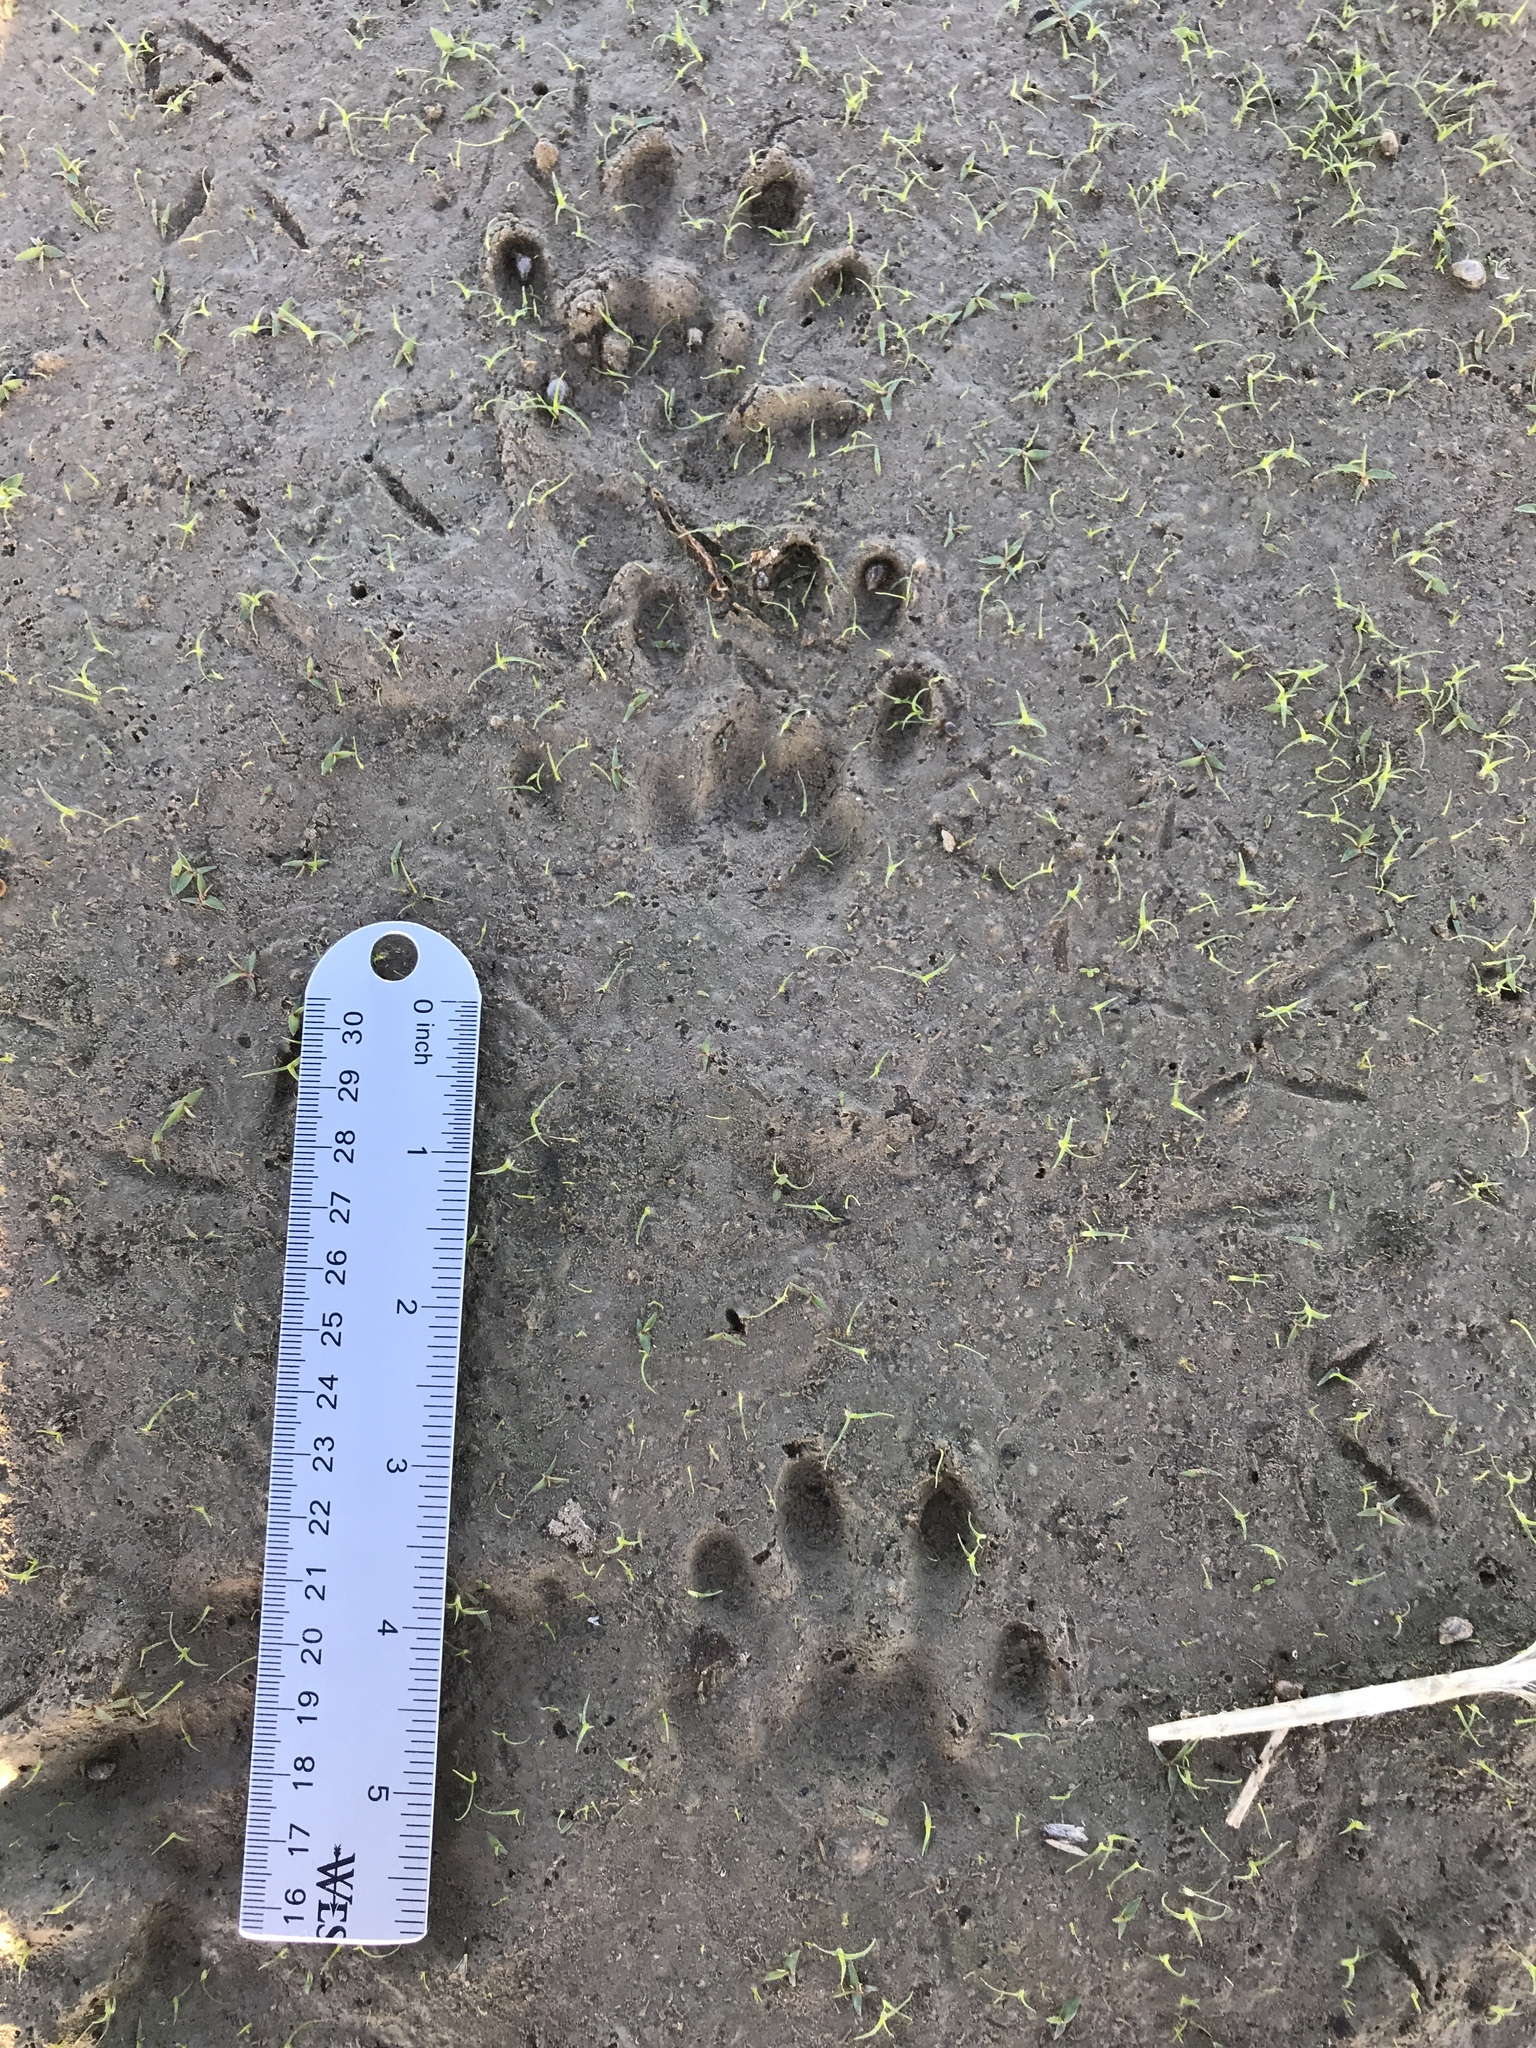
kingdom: Animalia
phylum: Chordata
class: Mammalia
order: Carnivora
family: Mustelidae
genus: Lontra
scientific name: Lontra canadensis
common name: North american river otter
